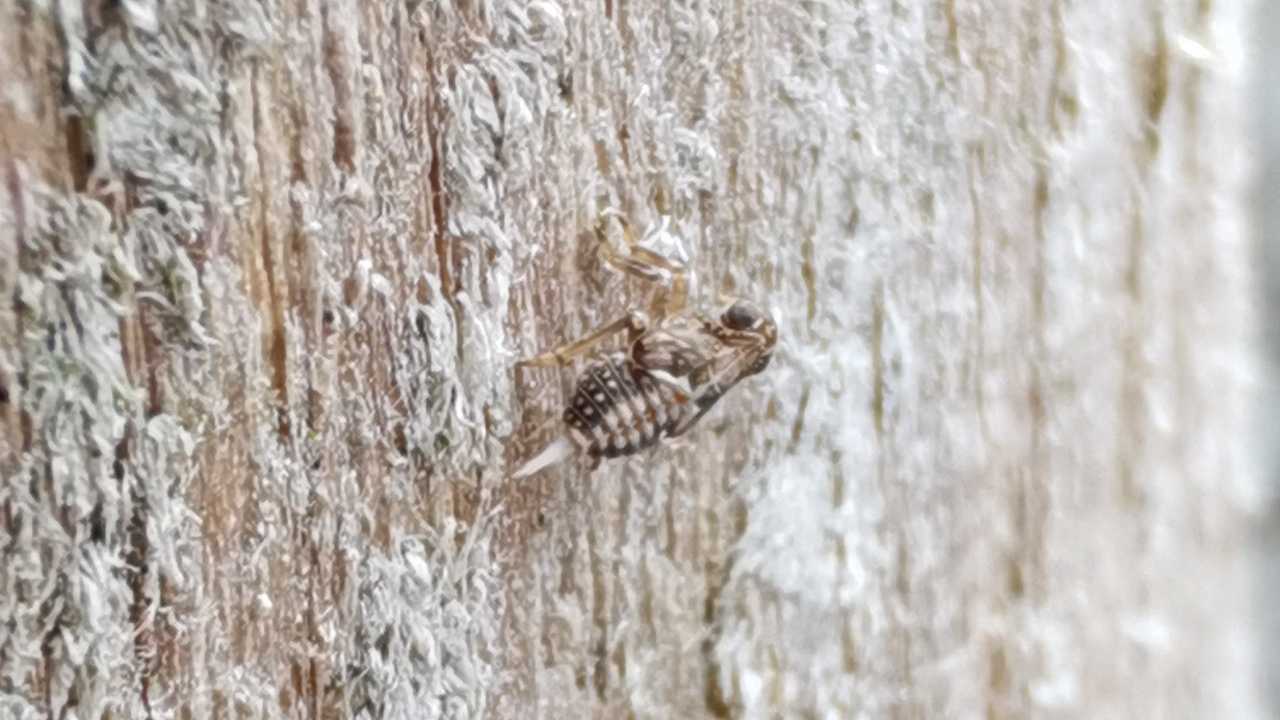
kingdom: Animalia
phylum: Arthropoda
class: Insecta
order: Hemiptera
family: Issidae
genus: Issus
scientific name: Issus
